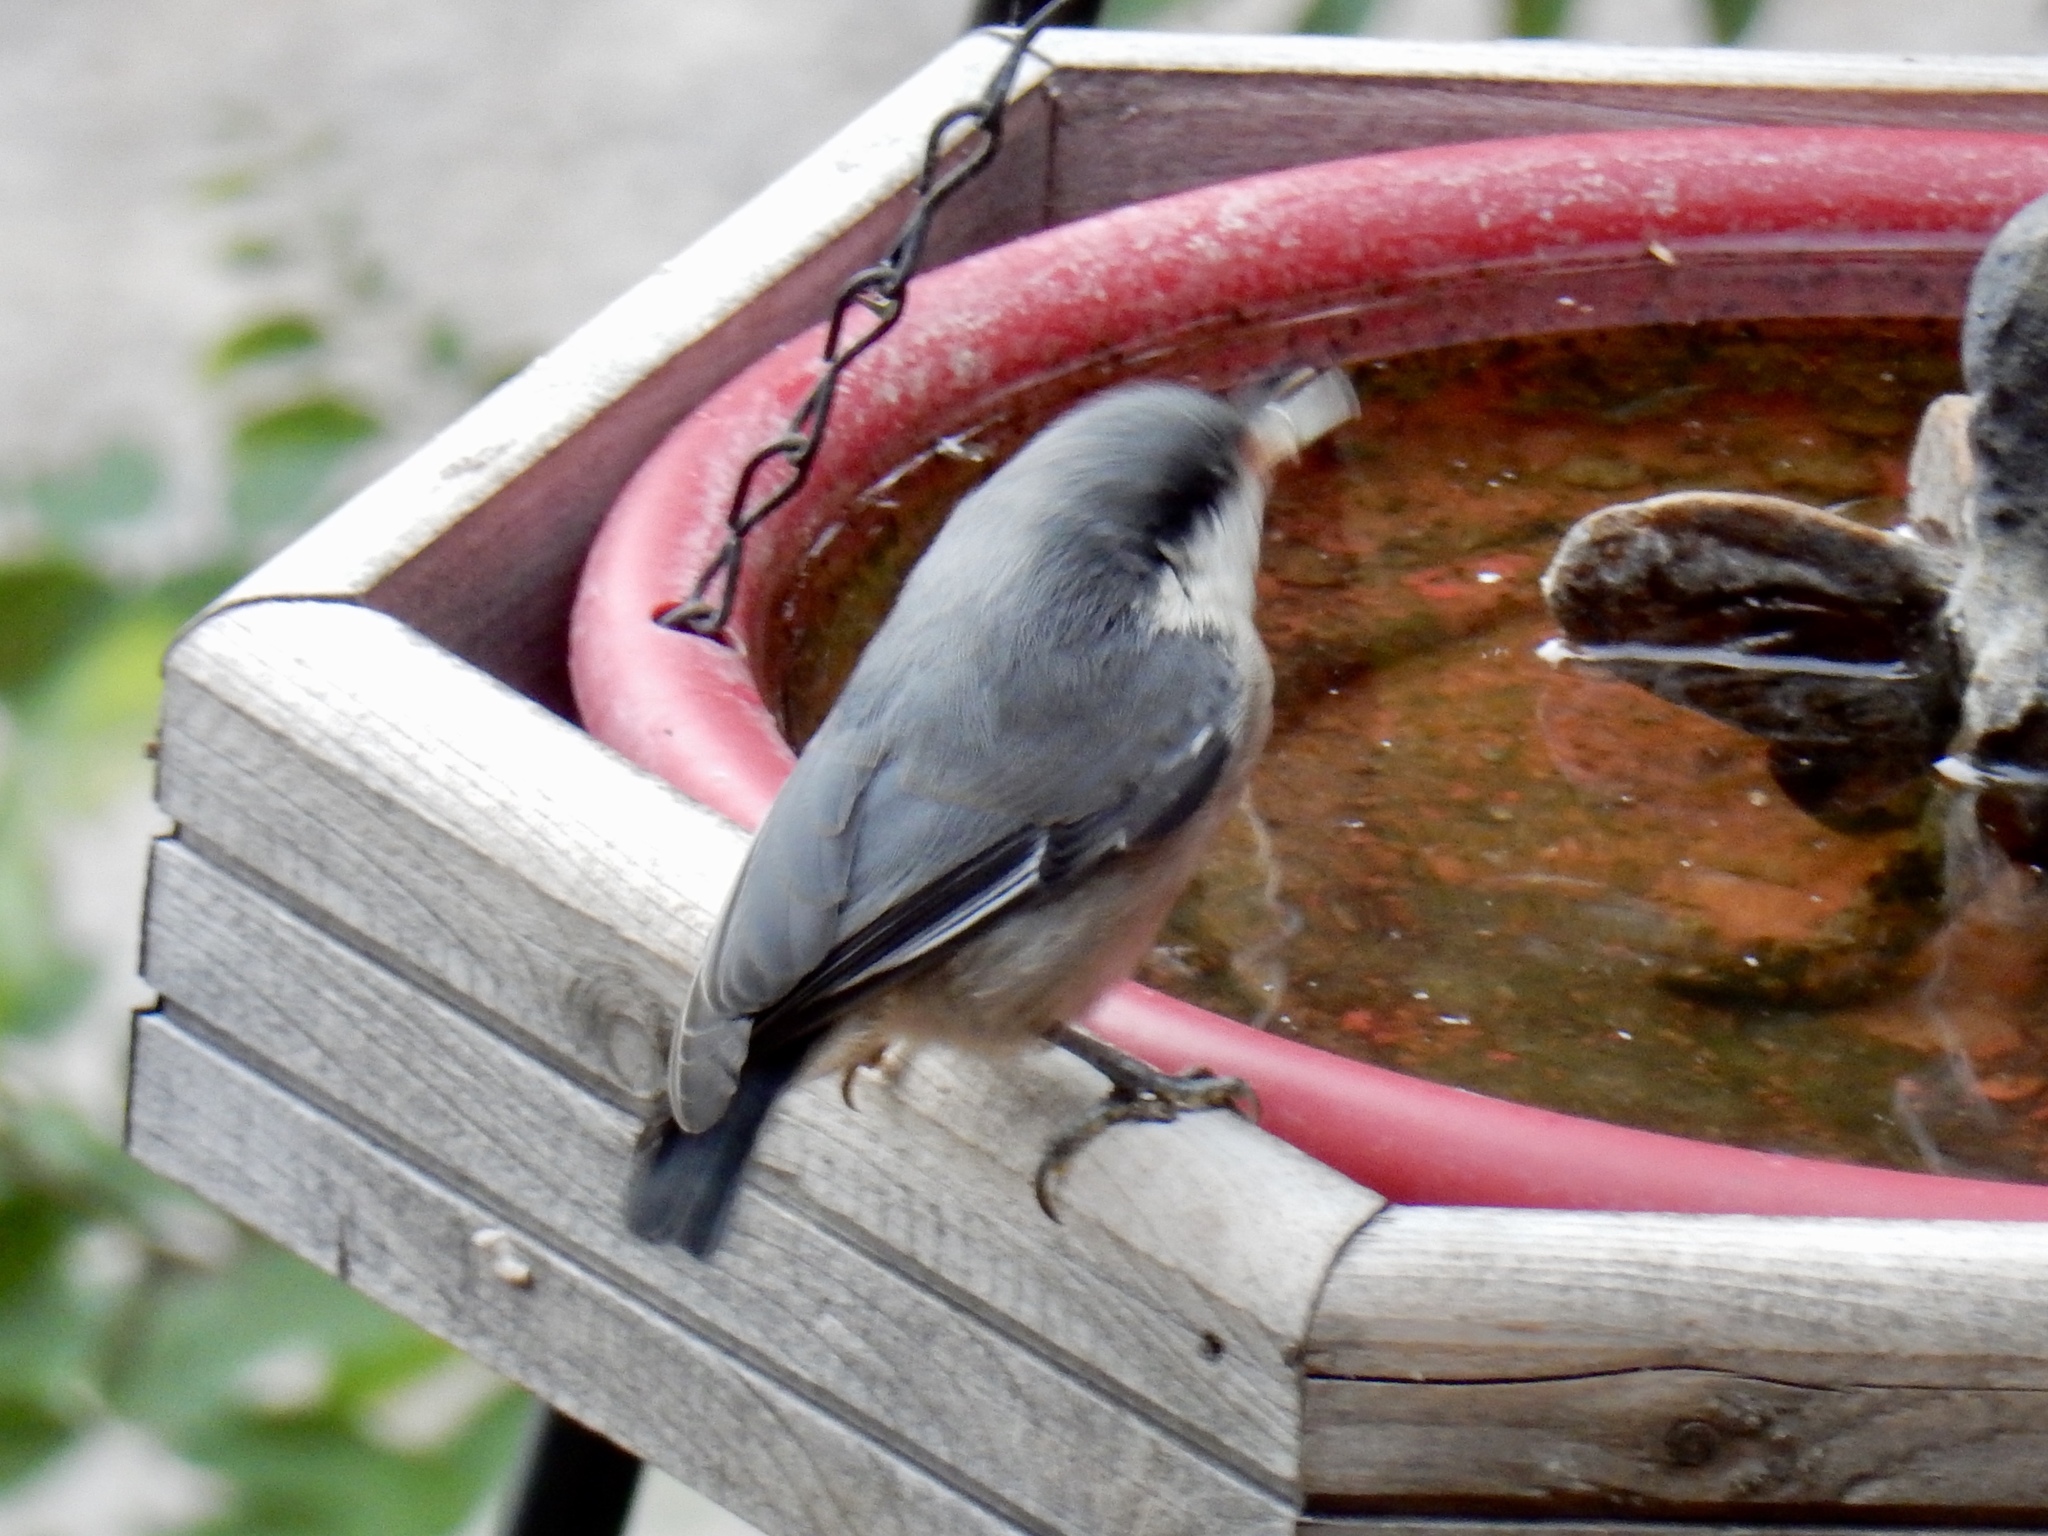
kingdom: Animalia
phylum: Chordata
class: Aves
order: Passeriformes
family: Sittidae
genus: Sitta
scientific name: Sitta pygmaea
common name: Pygmy nuthatch
